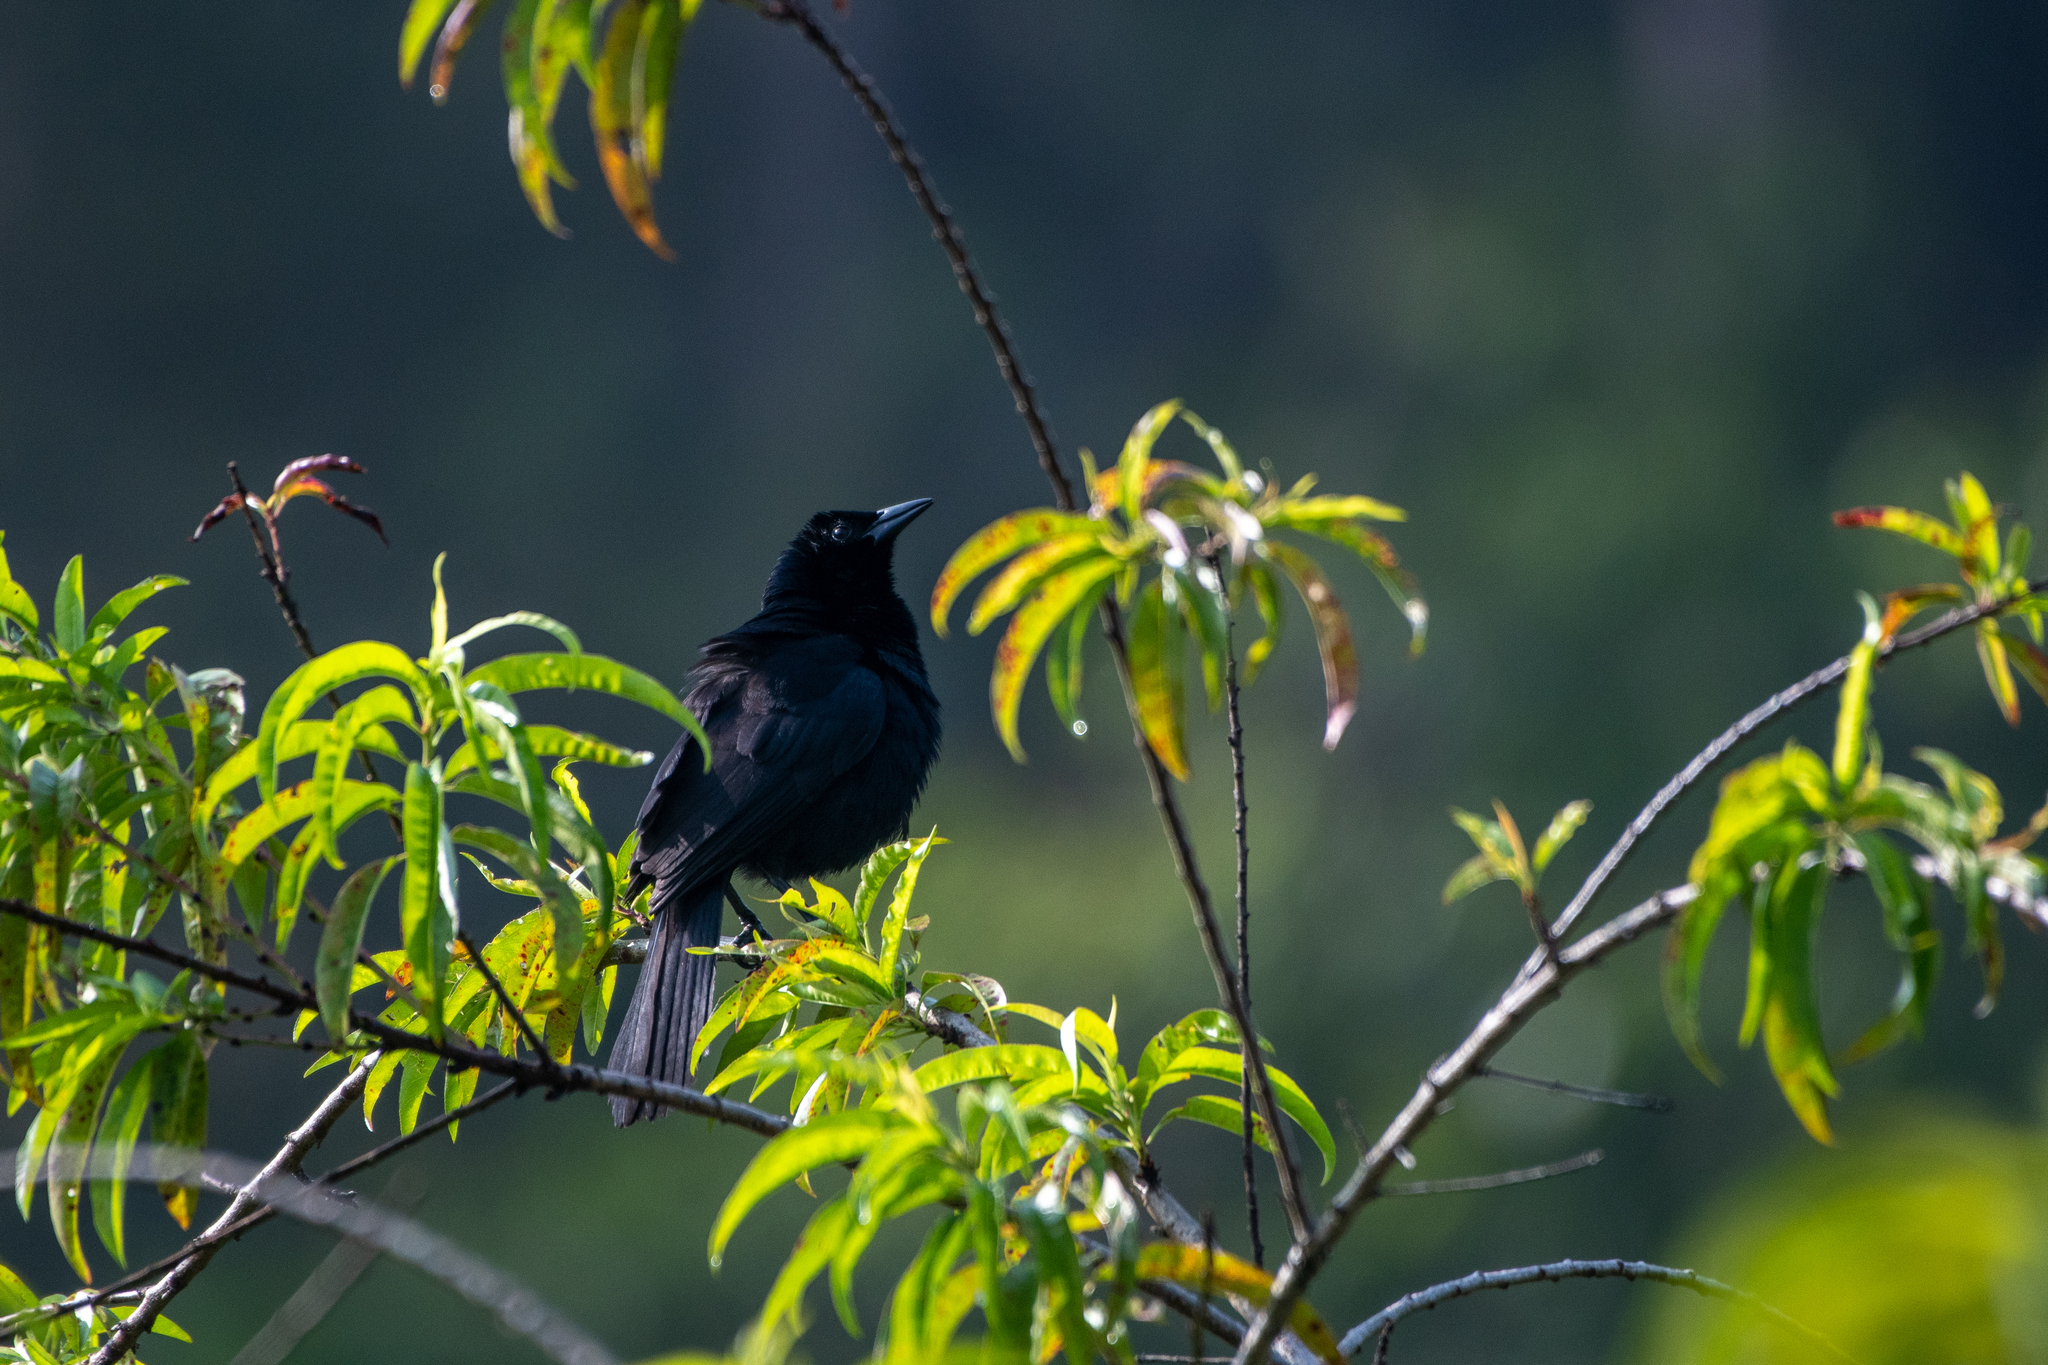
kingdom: Animalia
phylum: Chordata
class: Aves
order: Passeriformes
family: Icteridae
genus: Dives
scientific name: Dives dives
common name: Melodious blackbird
